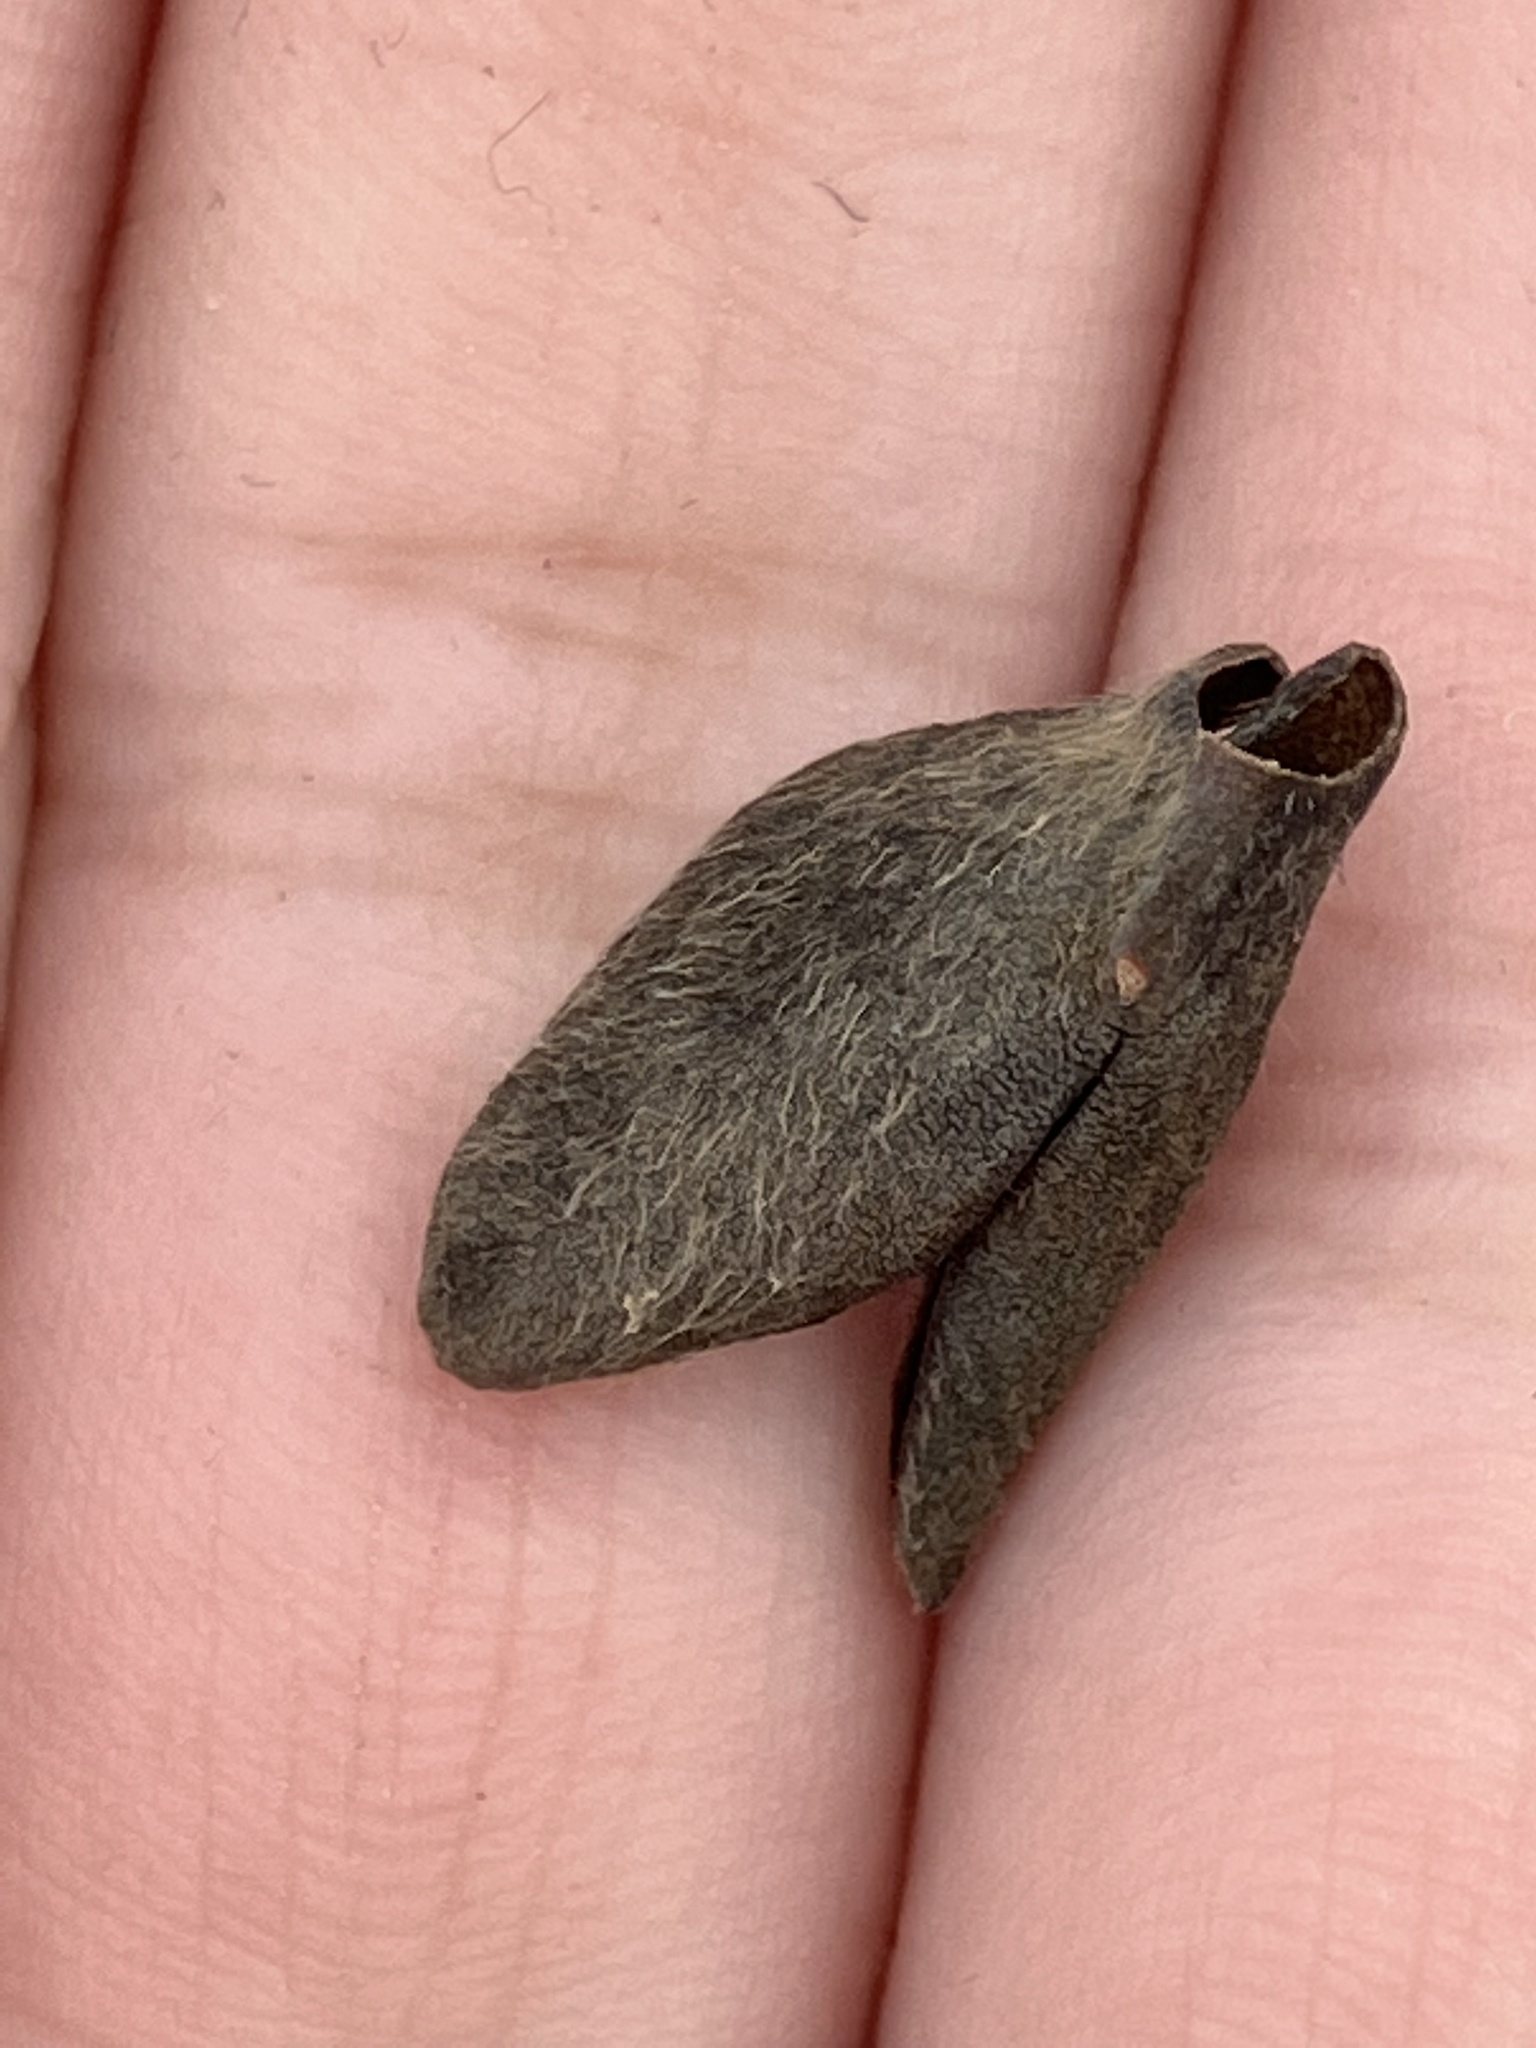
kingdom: Plantae
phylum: Tracheophyta
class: Magnoliopsida
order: Magnoliales
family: Annonaceae
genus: Asimina
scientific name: Asimina triloba
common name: Dog-banana
